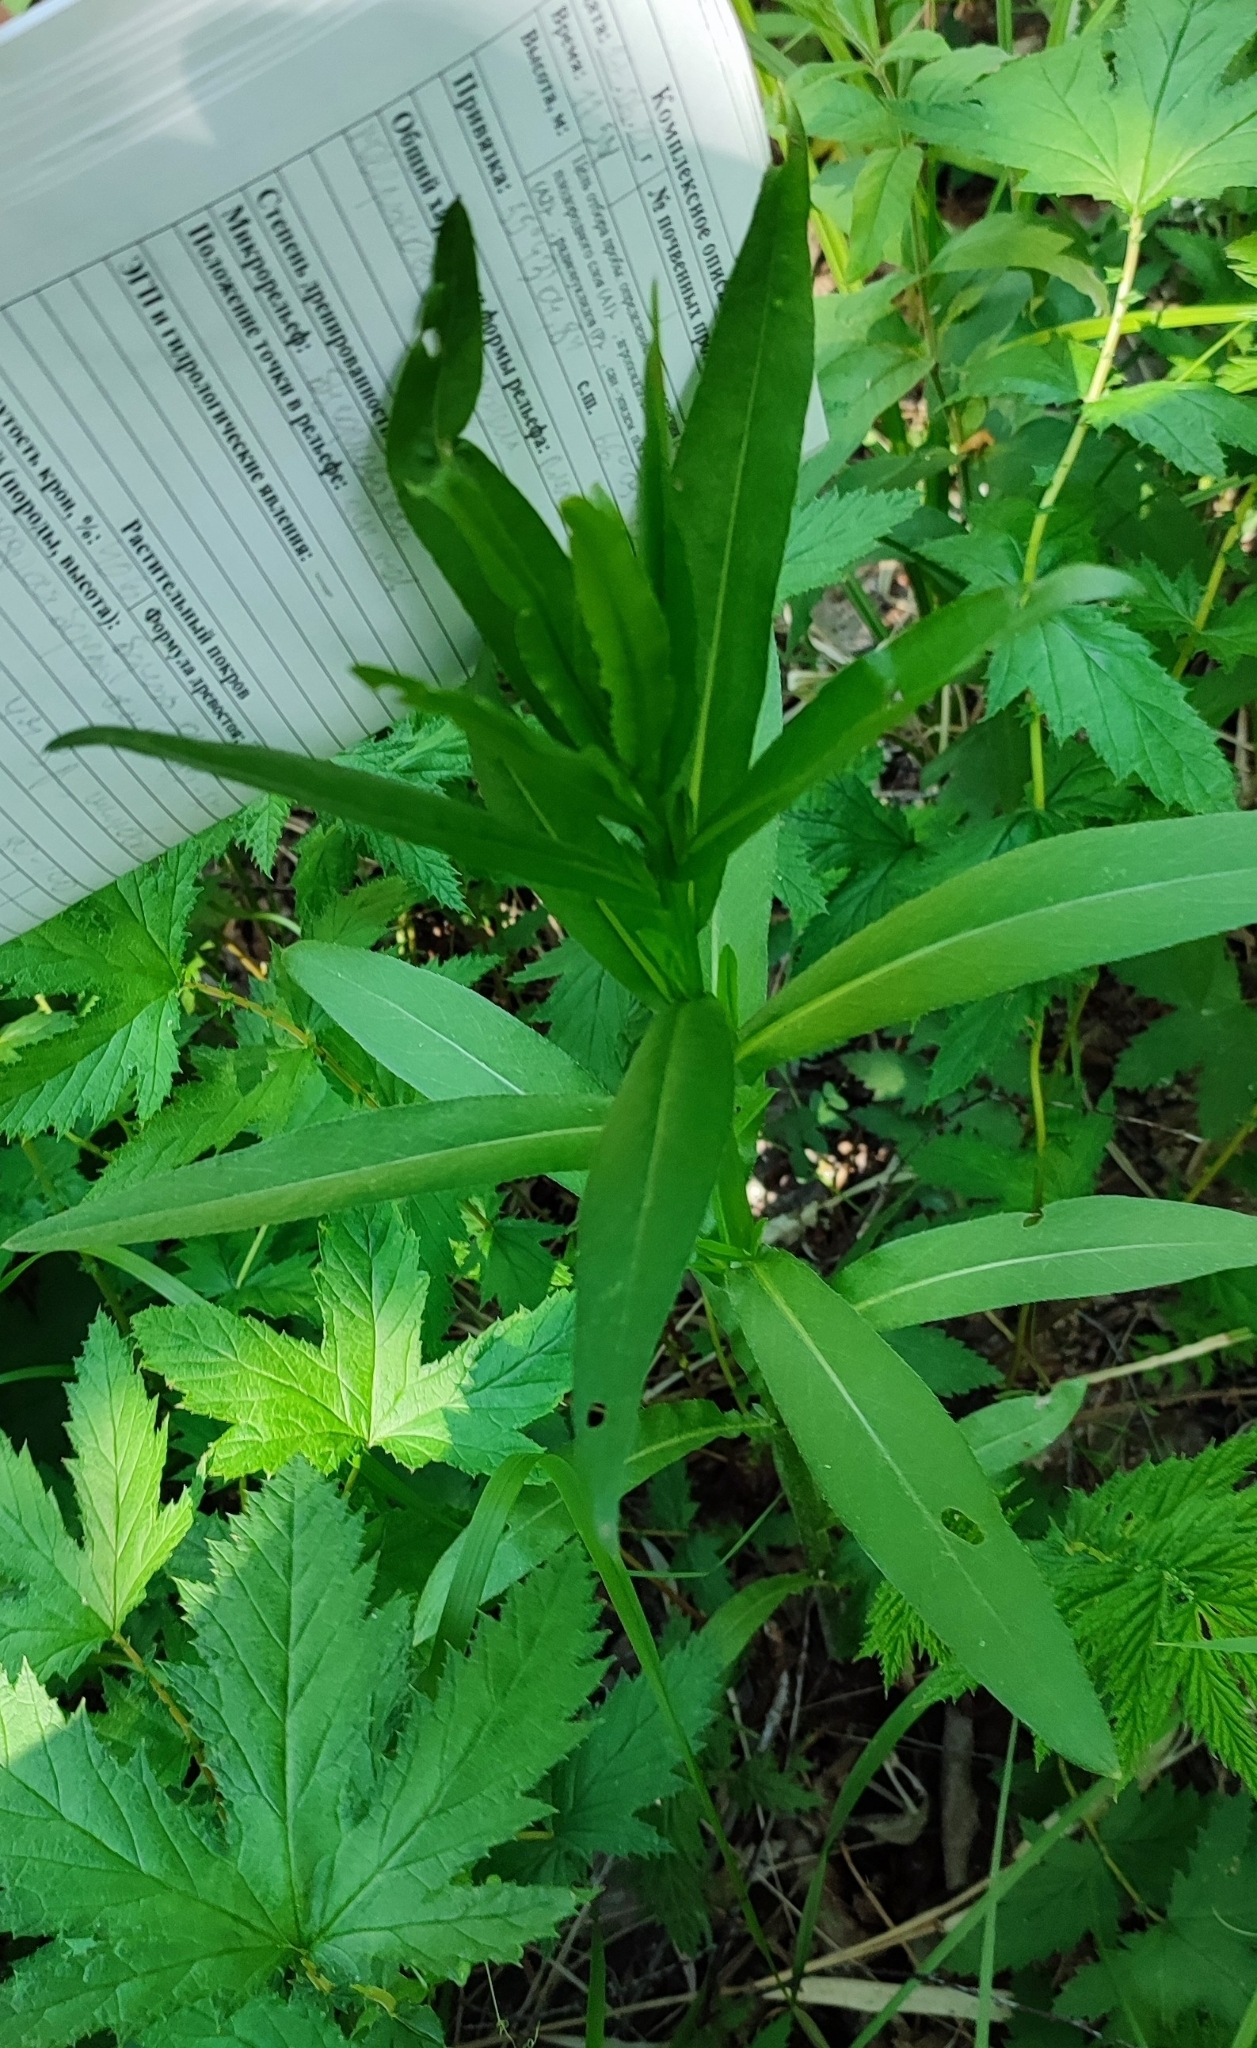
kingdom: Plantae
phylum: Tracheophyta
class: Magnoliopsida
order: Asterales
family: Asteraceae
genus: Cirsium
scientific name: Cirsium arvense
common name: Creeping thistle
